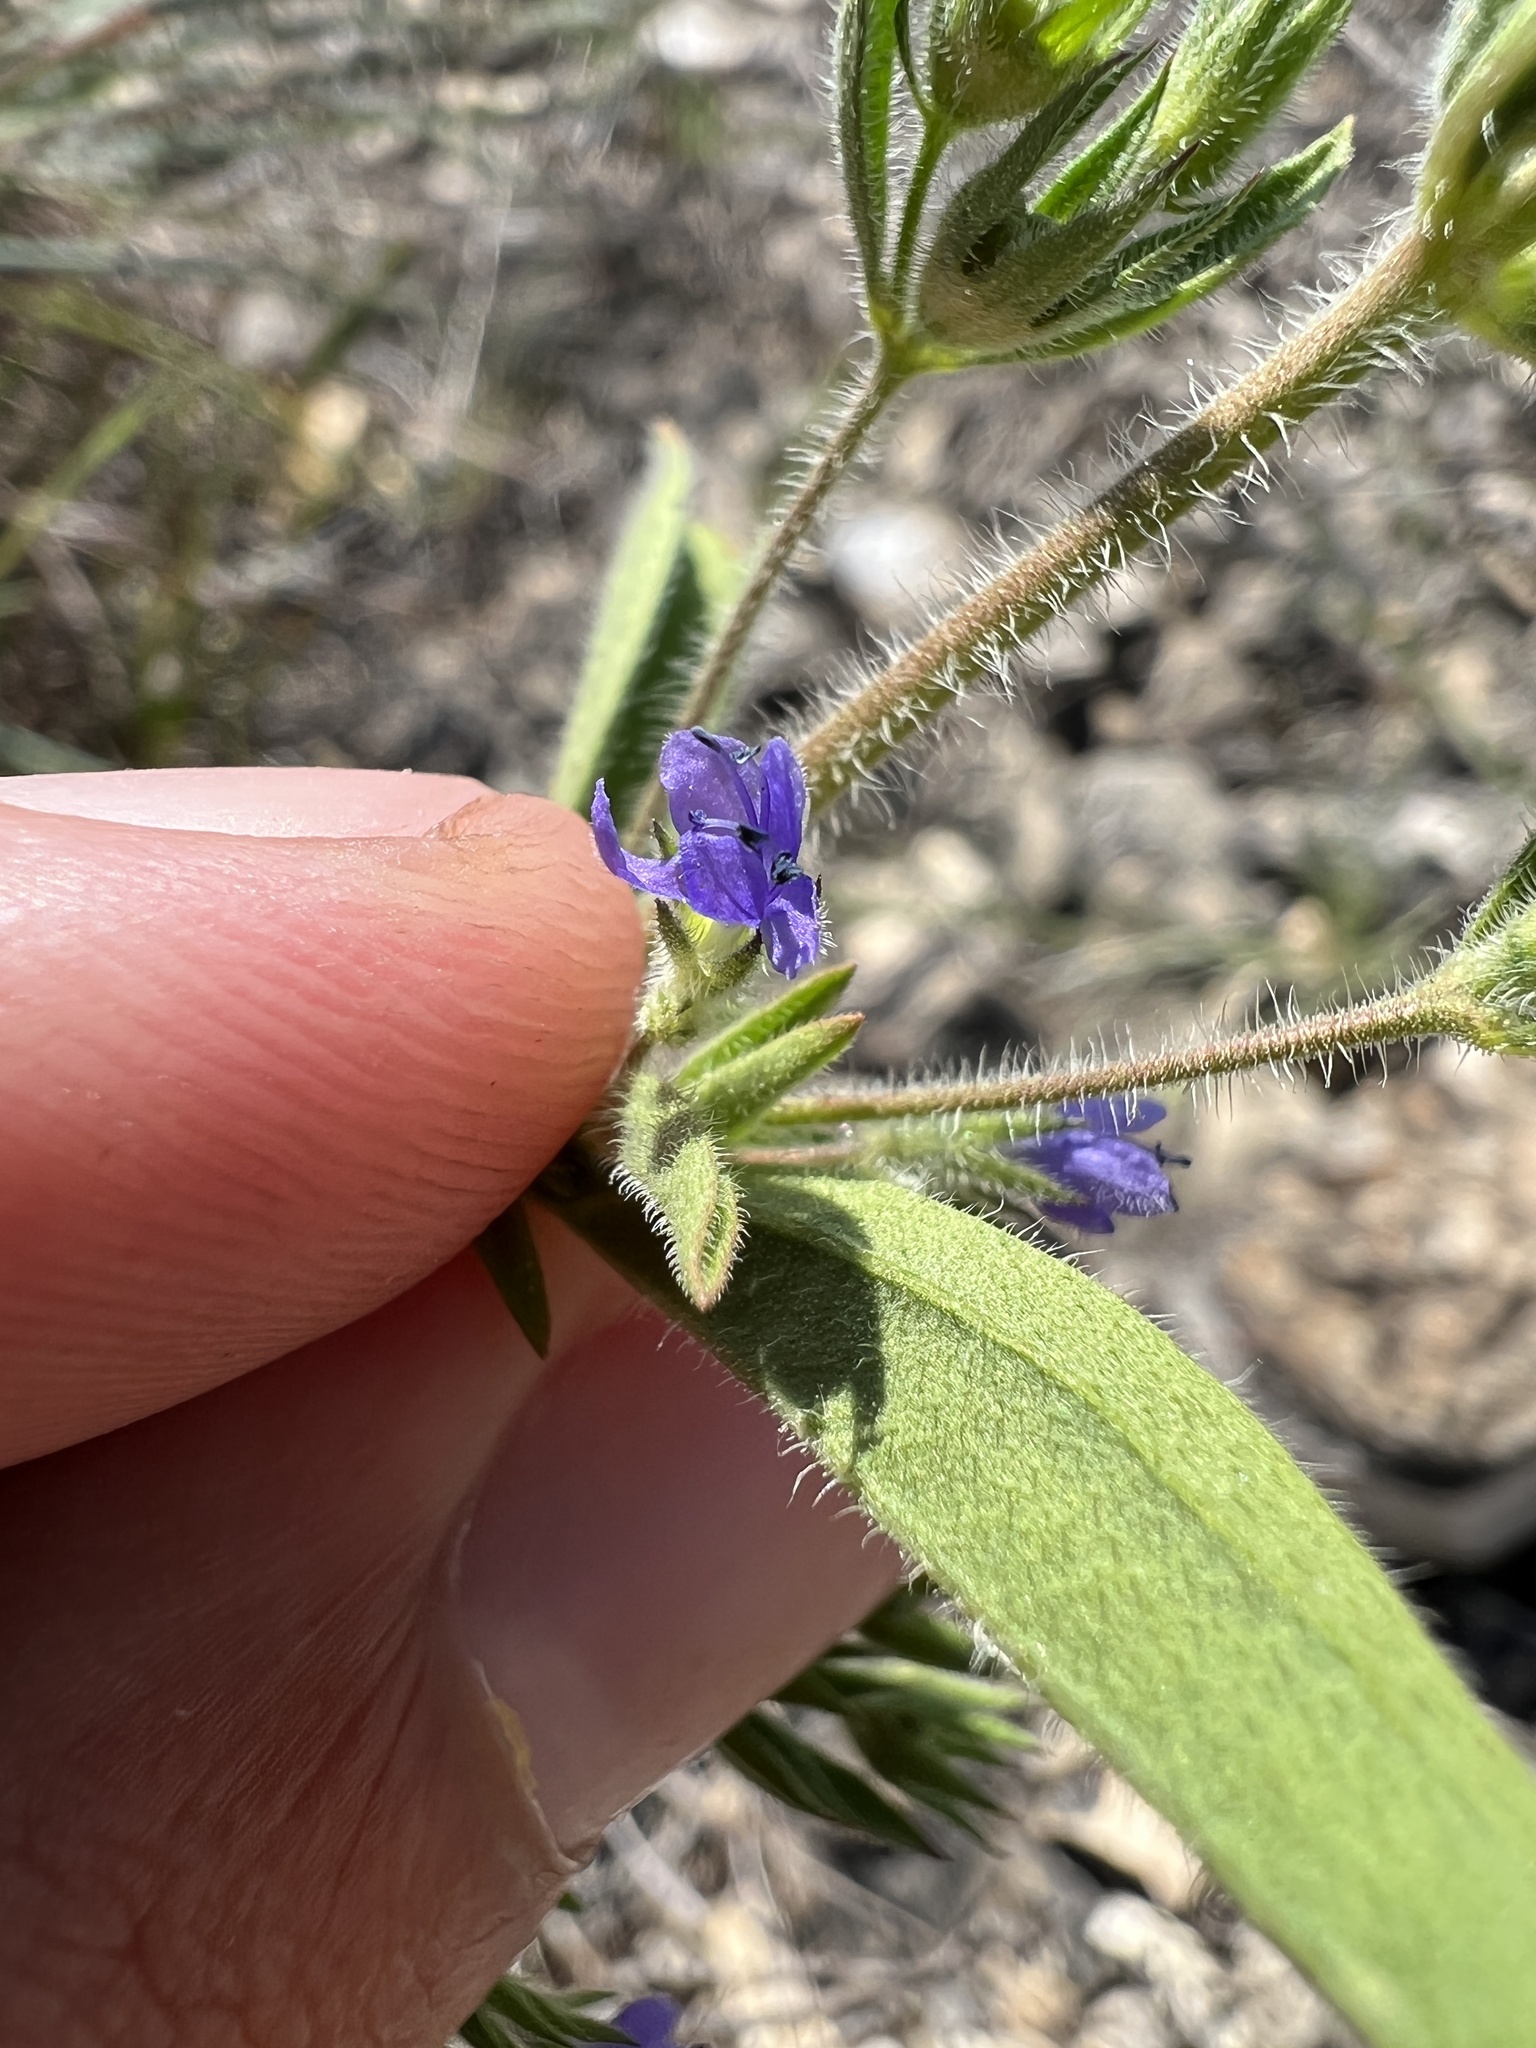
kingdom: Plantae
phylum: Tracheophyta
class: Magnoliopsida
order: Lamiales
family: Lamiaceae
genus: Trichostema
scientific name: Trichostema brachiatum
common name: False pennyroyal
